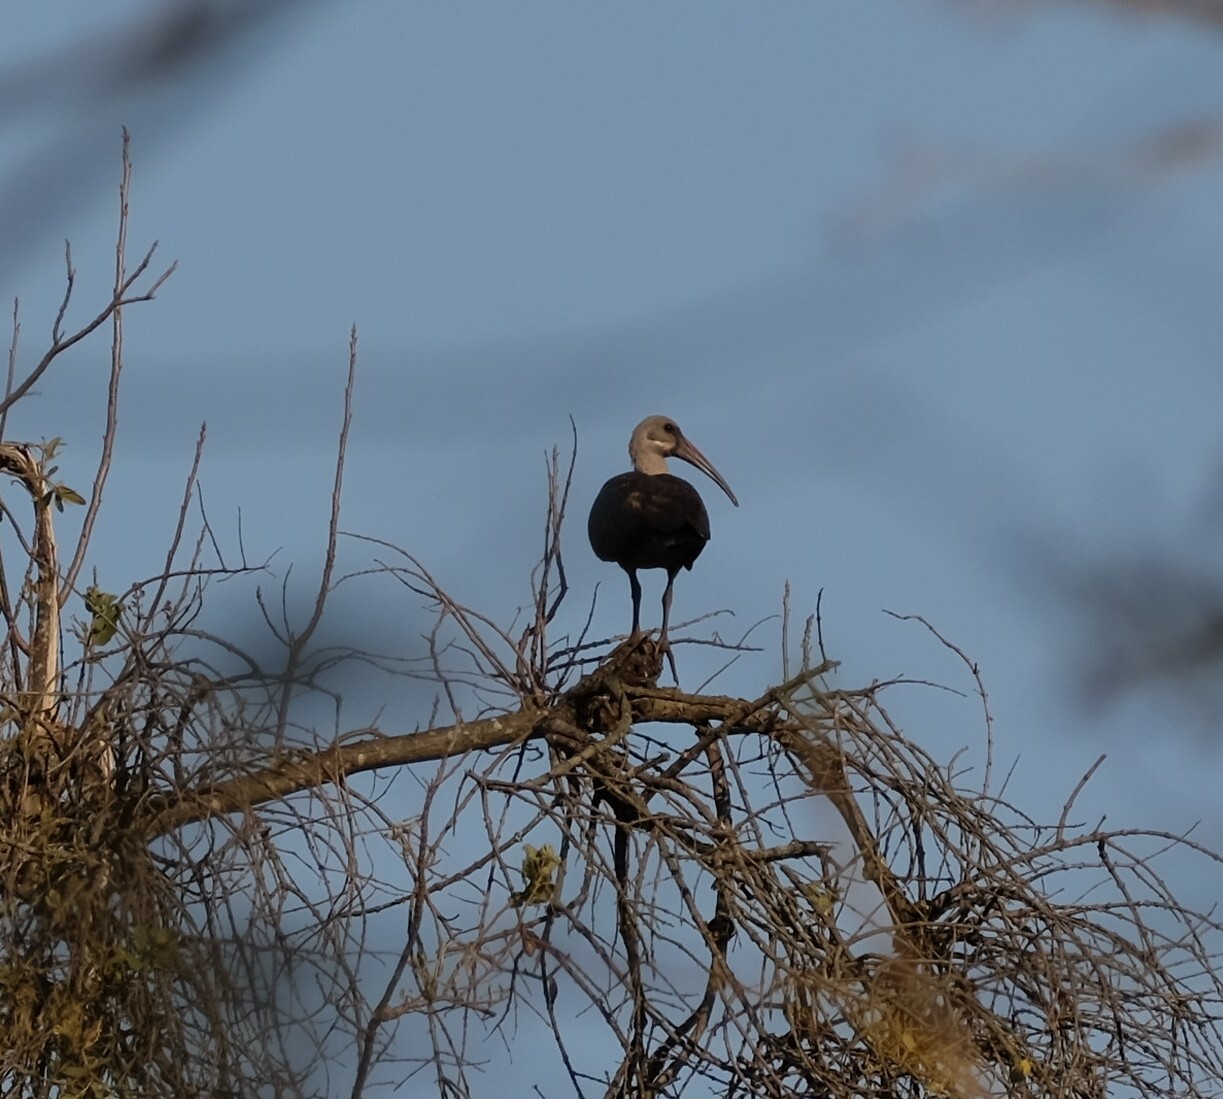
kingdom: Animalia
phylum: Chordata
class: Aves
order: Pelecaniformes
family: Threskiornithidae
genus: Bostrychia
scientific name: Bostrychia hagedash
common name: Hadada ibis
